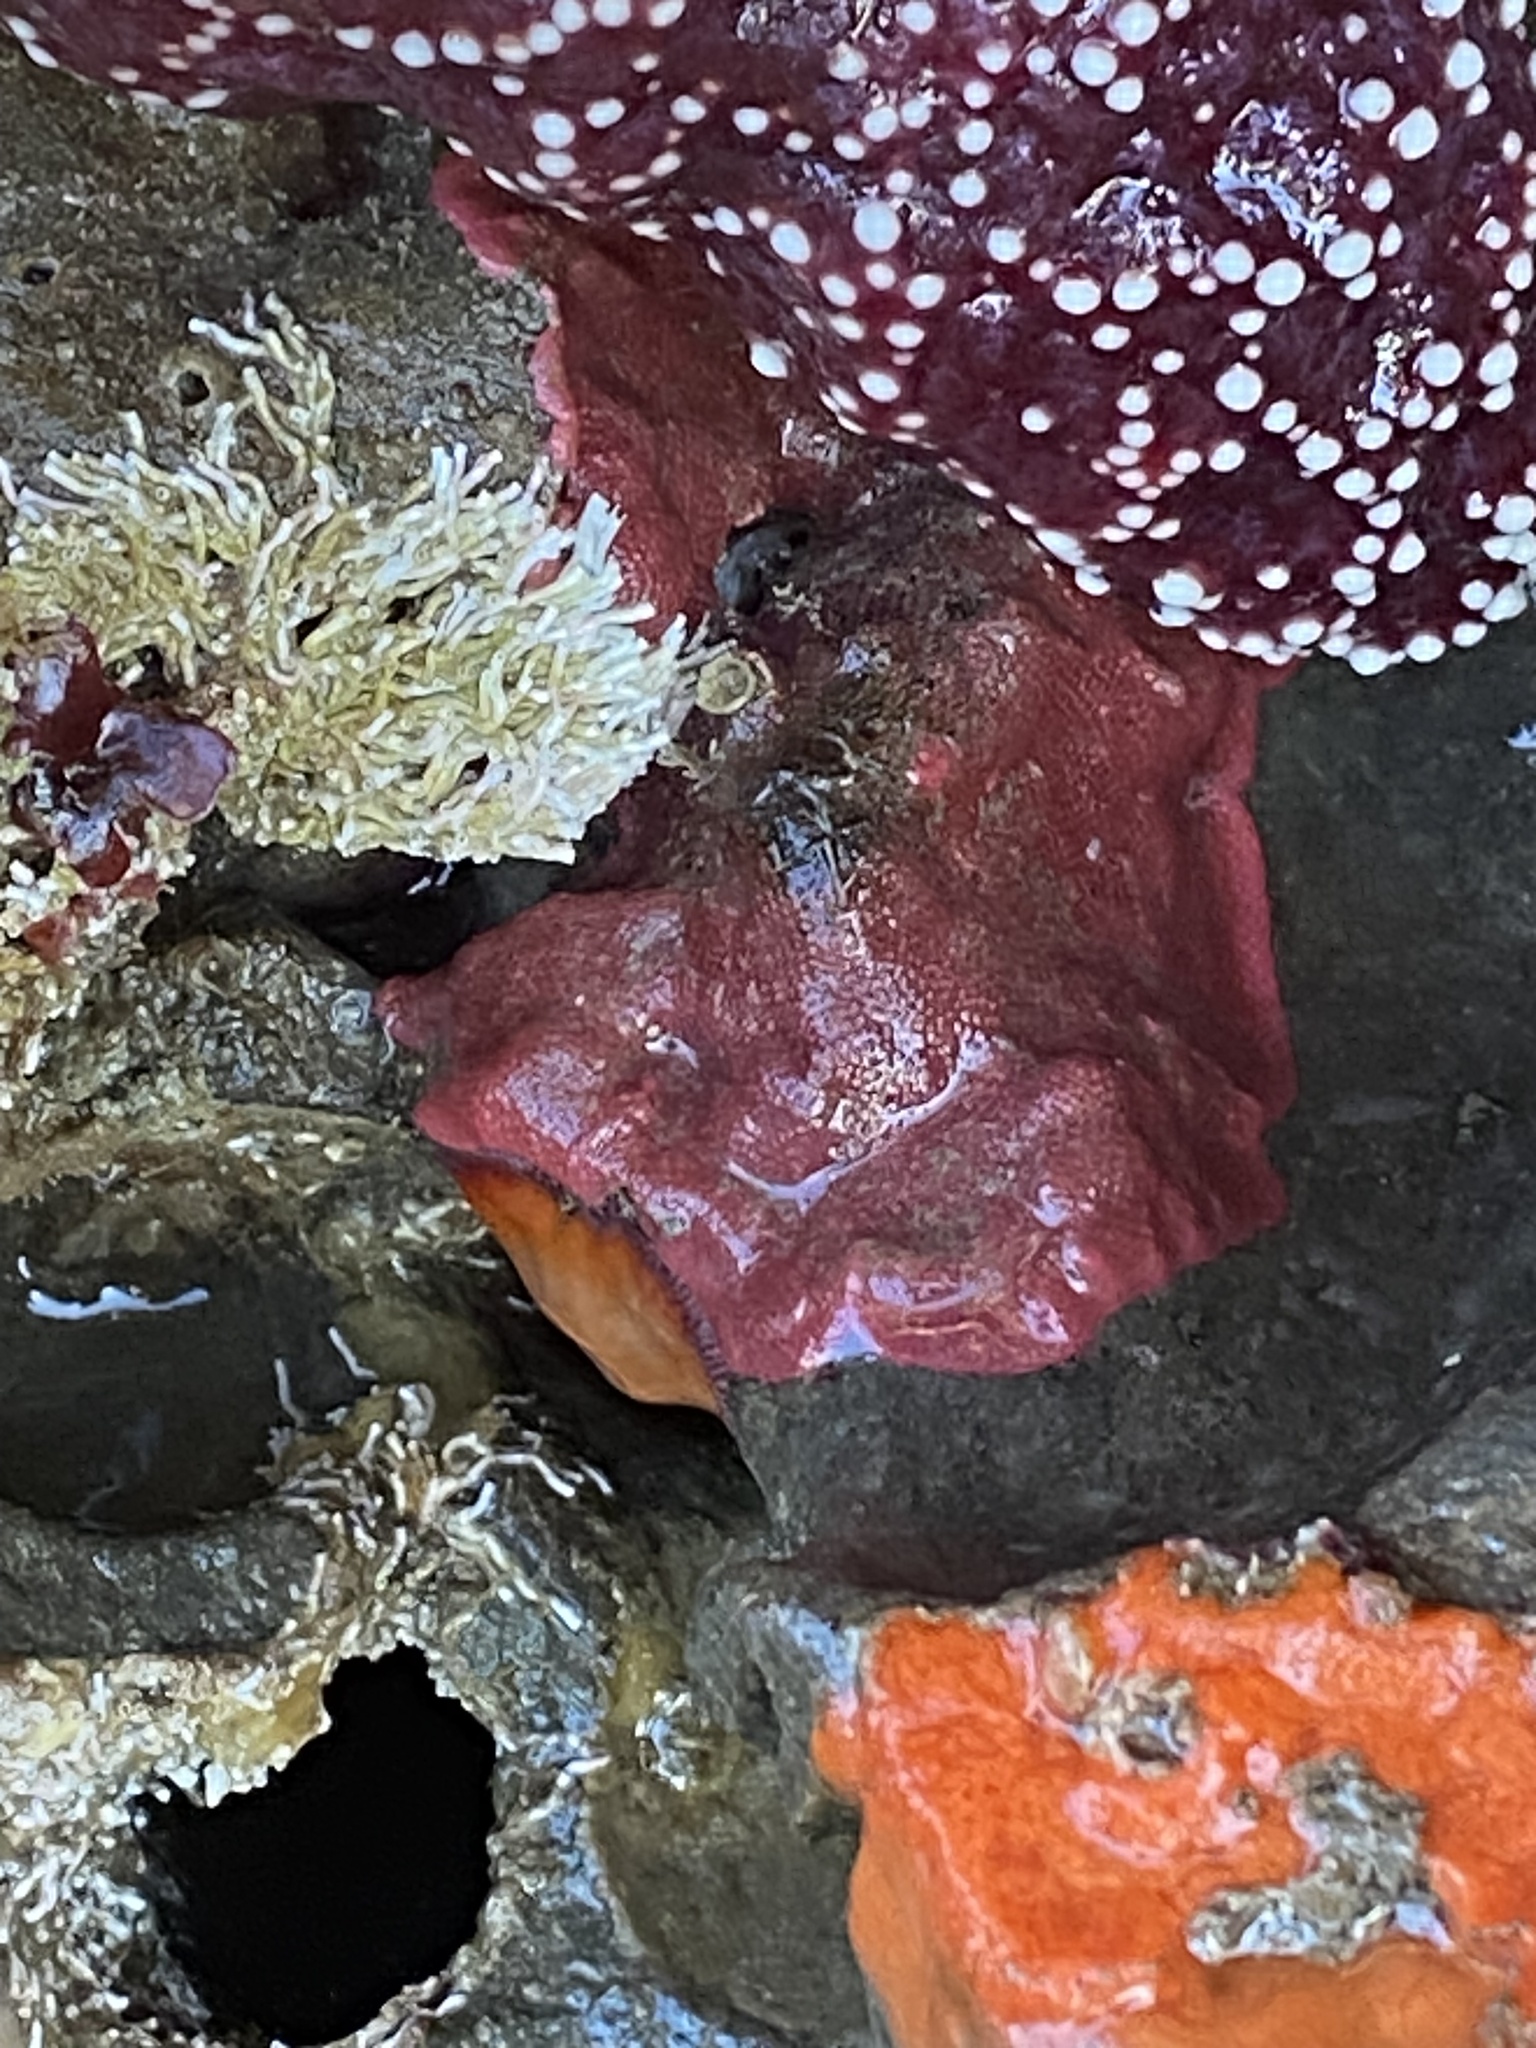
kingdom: Animalia
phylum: Bryozoa
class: Gymnolaemata
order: Cheilostomatida
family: Eurystomellidae
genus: Integripelta
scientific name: Integripelta bilabiata
